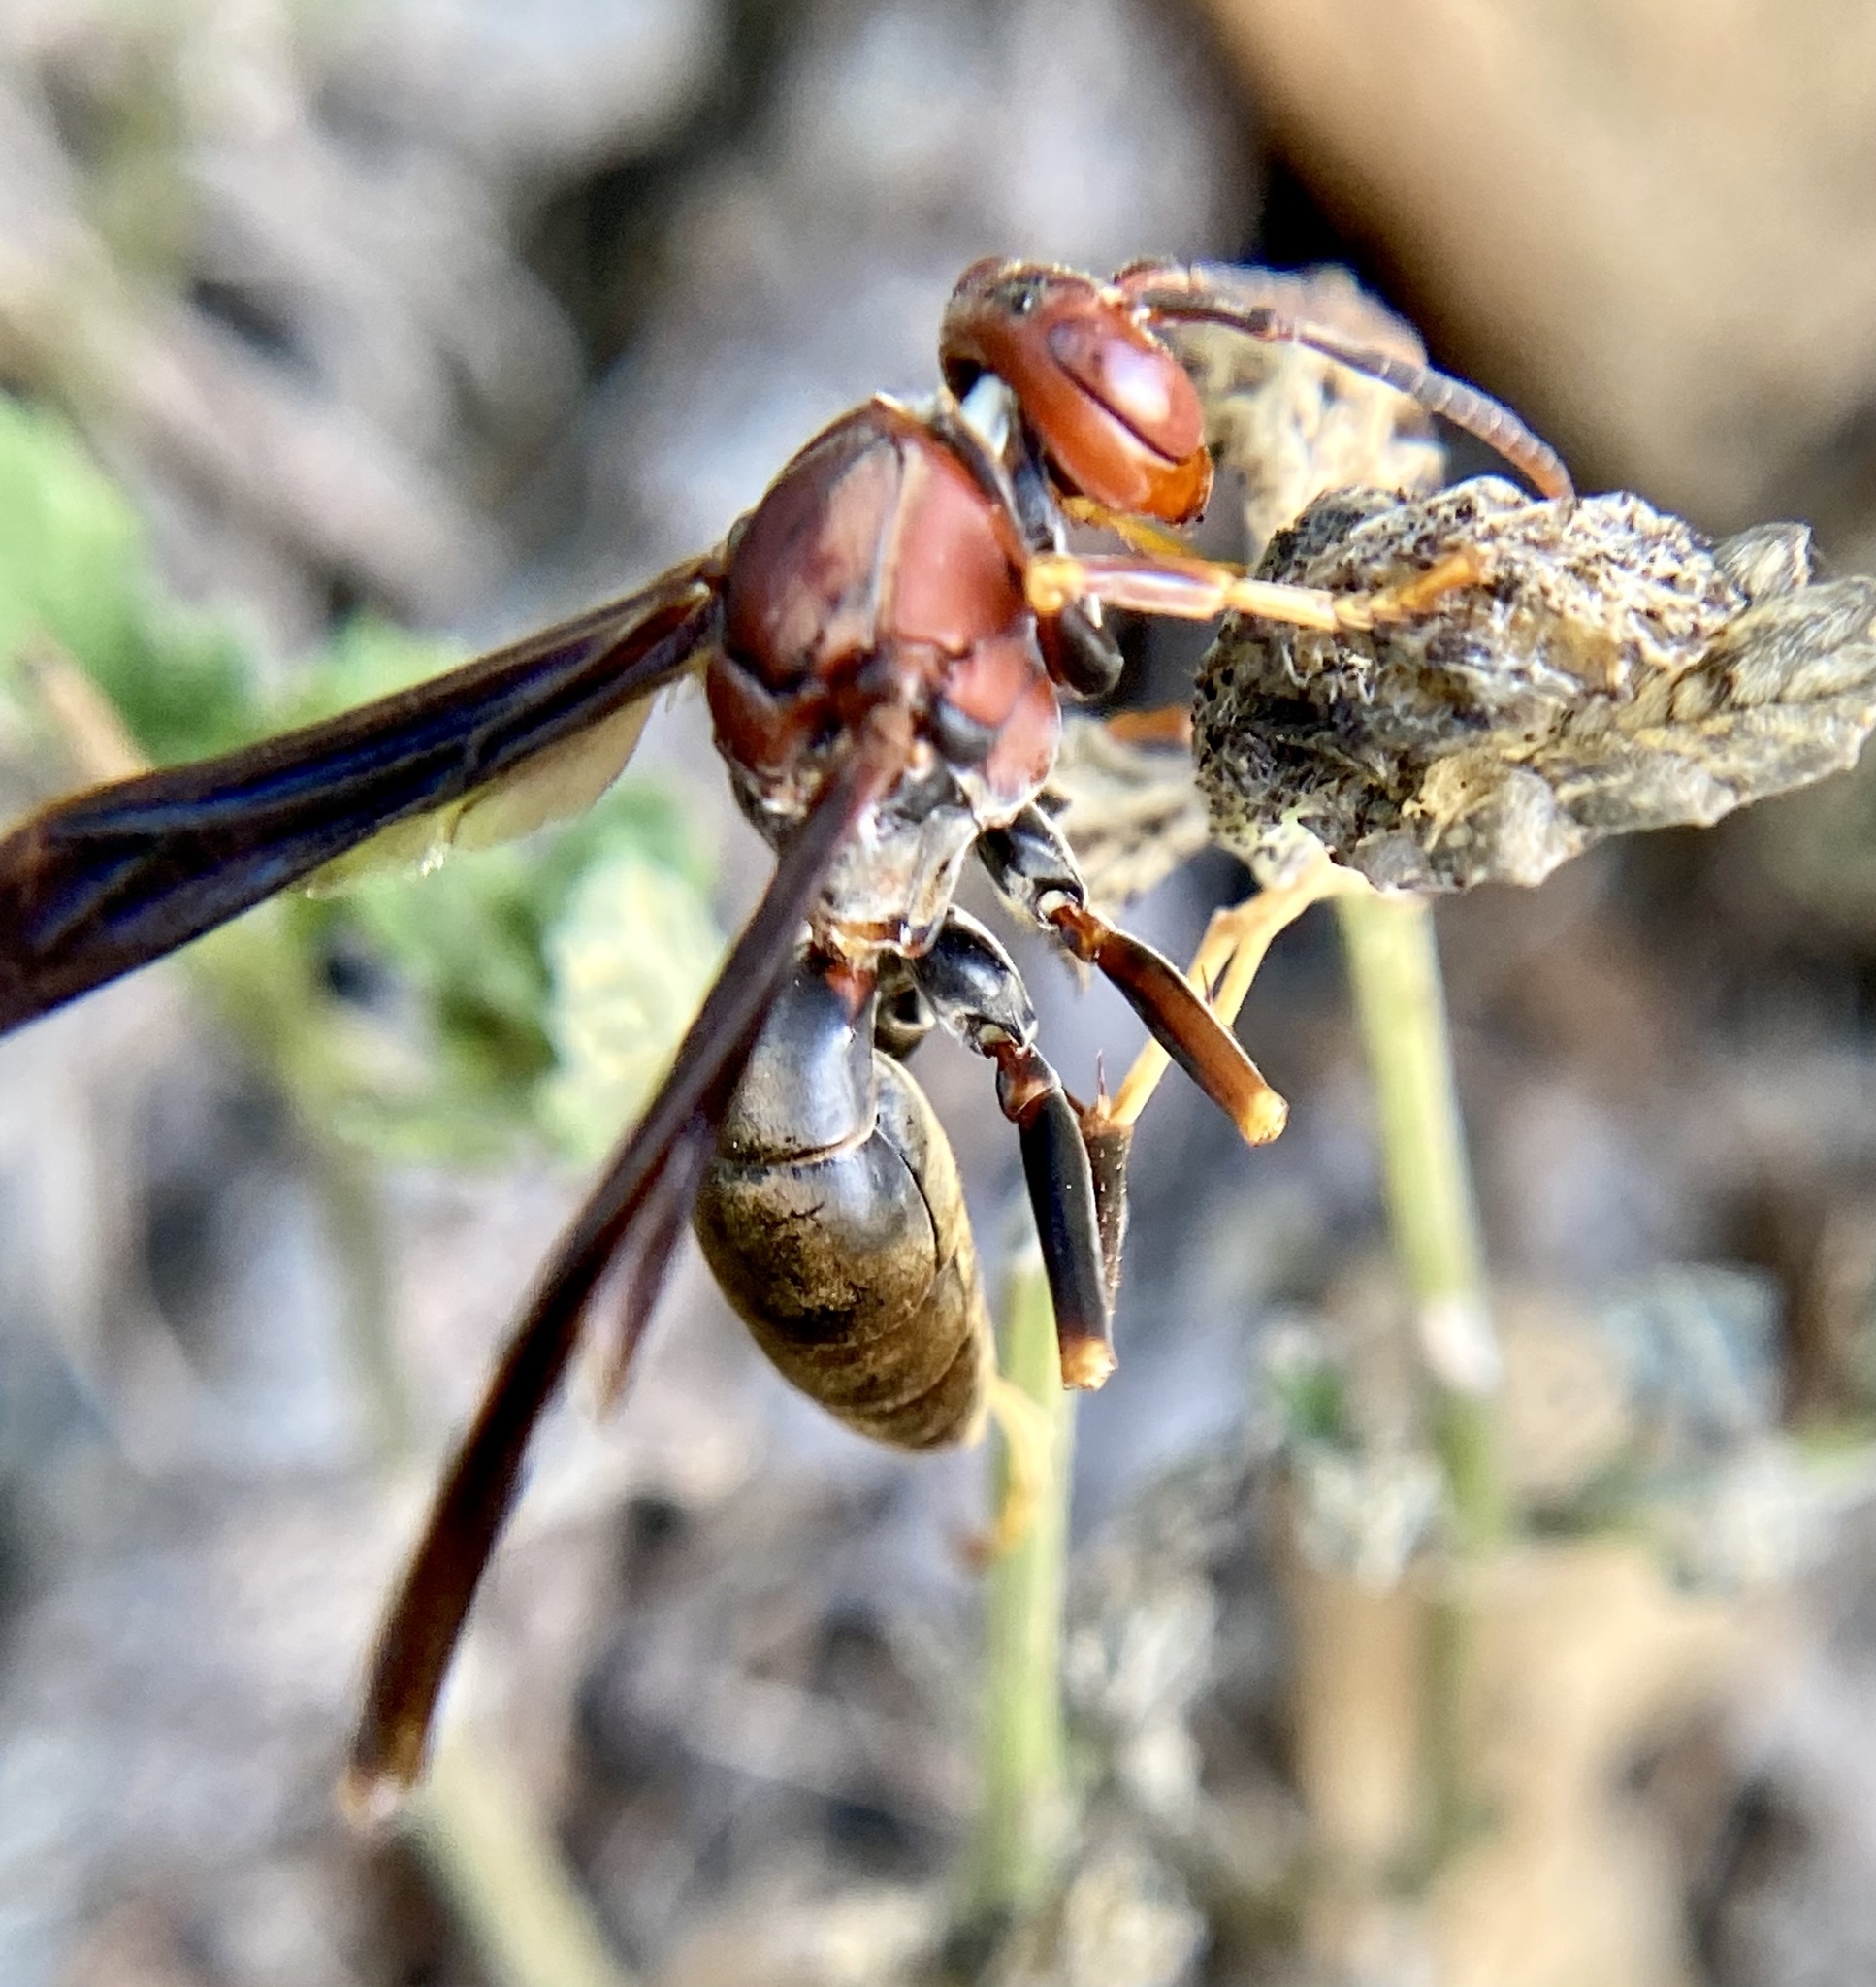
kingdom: Animalia
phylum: Arthropoda
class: Insecta
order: Hymenoptera
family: Eumenidae
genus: Polistes
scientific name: Polistes metricus
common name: Metric paper wasp
